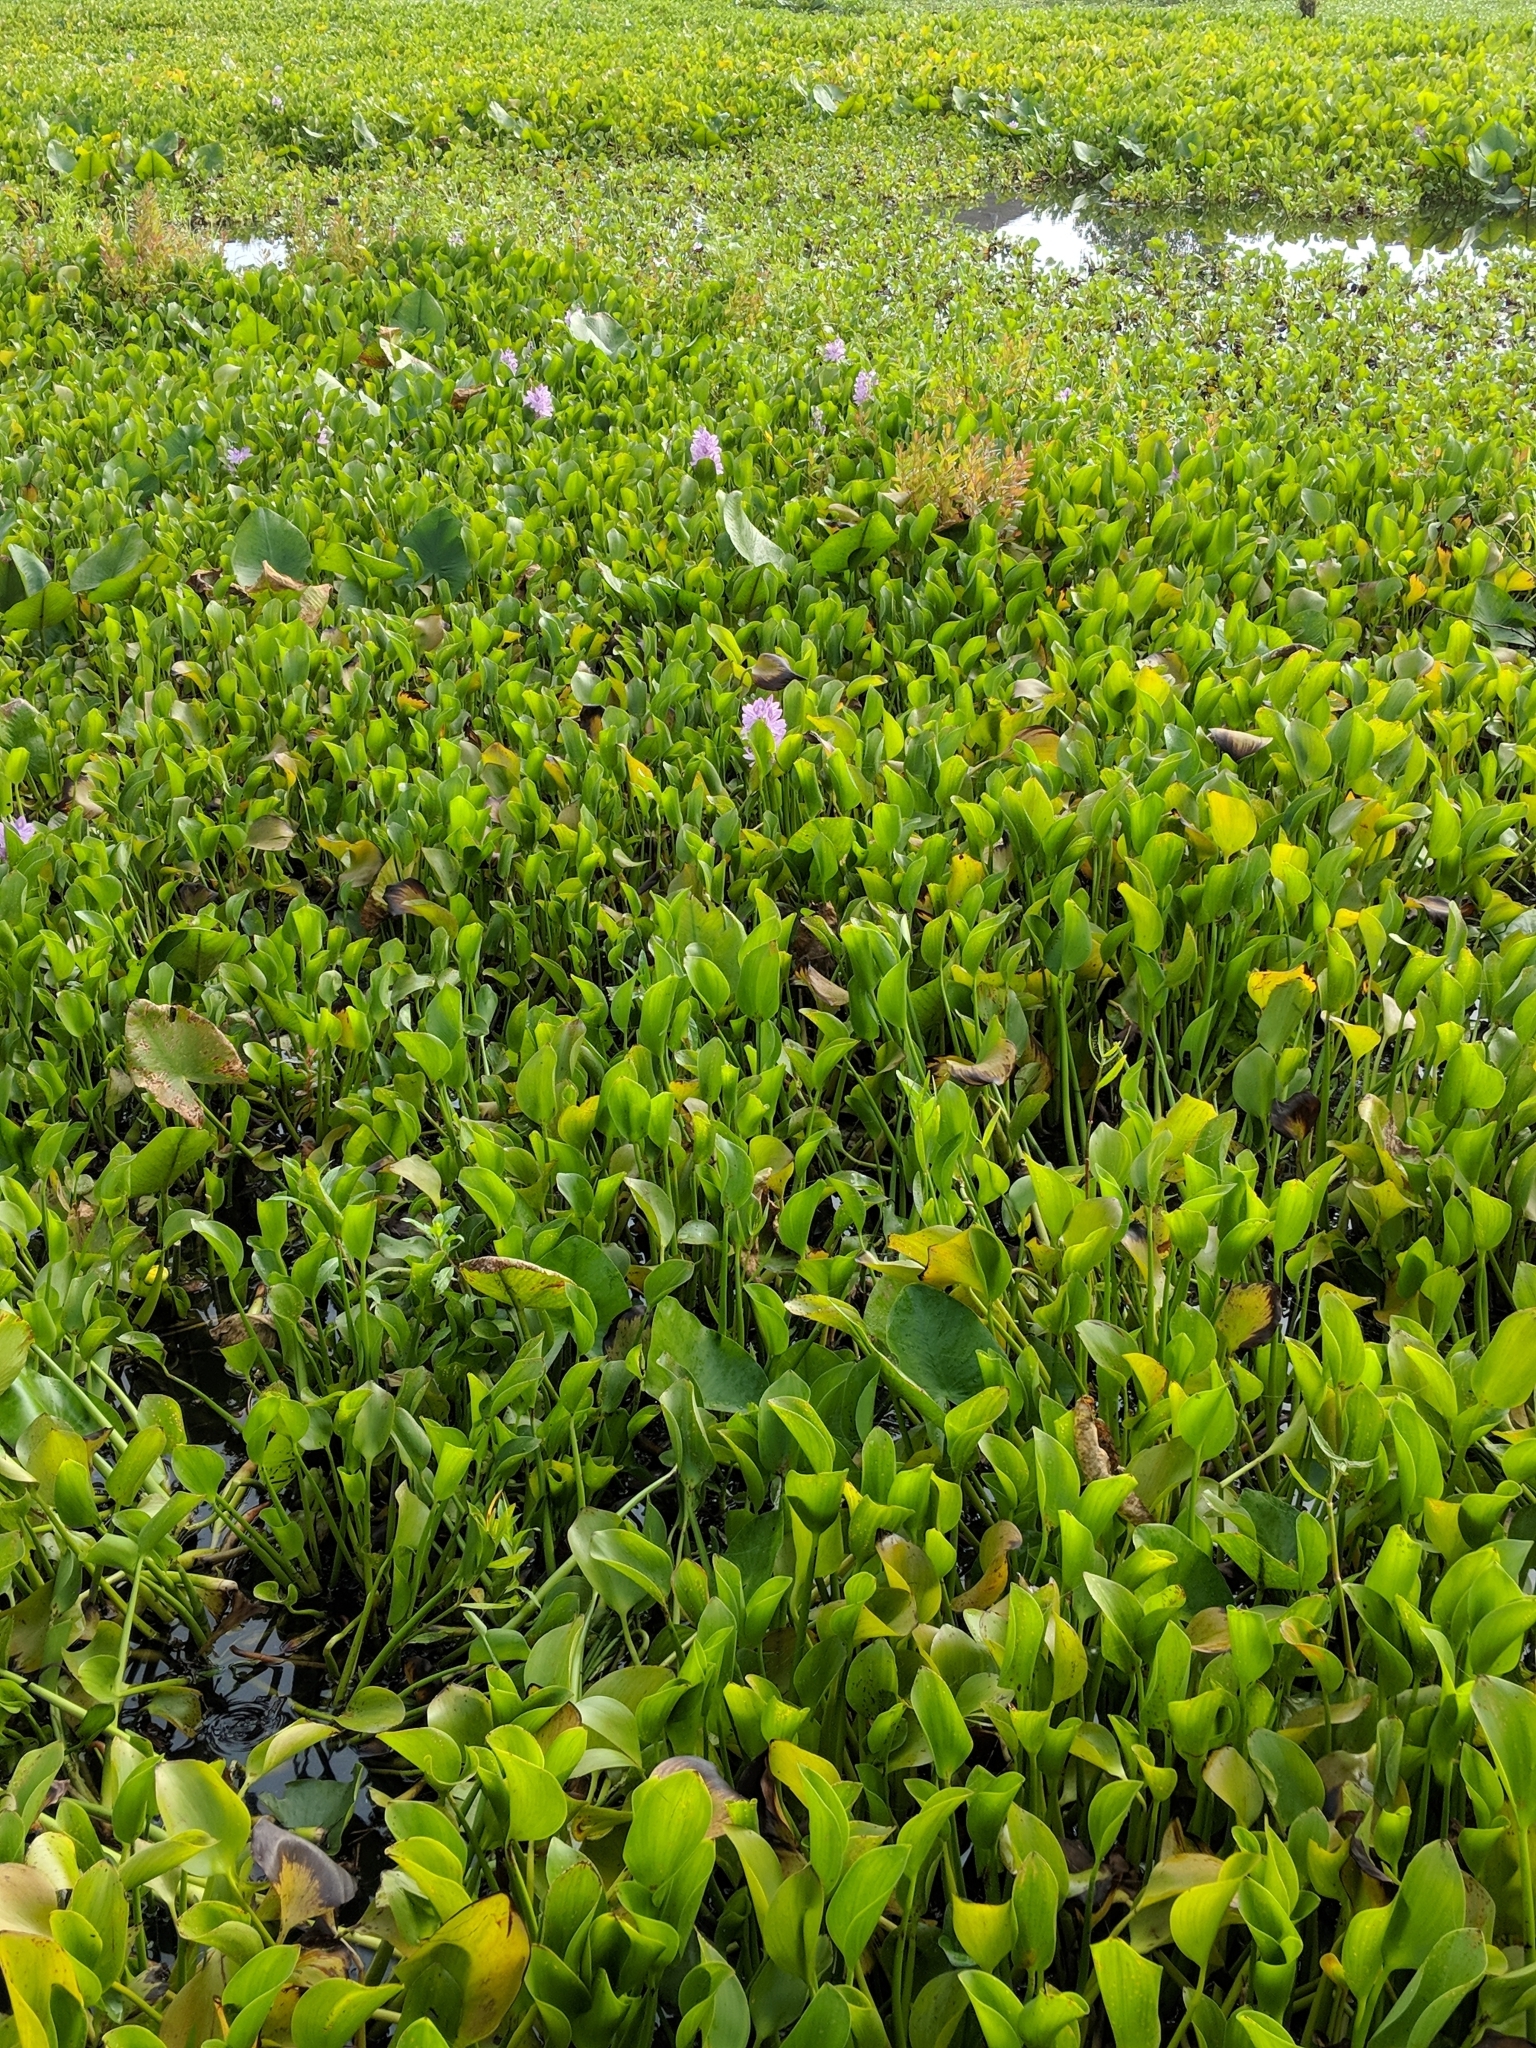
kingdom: Plantae
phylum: Tracheophyta
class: Liliopsida
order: Commelinales
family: Pontederiaceae
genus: Pontederia
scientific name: Pontederia crassipes
